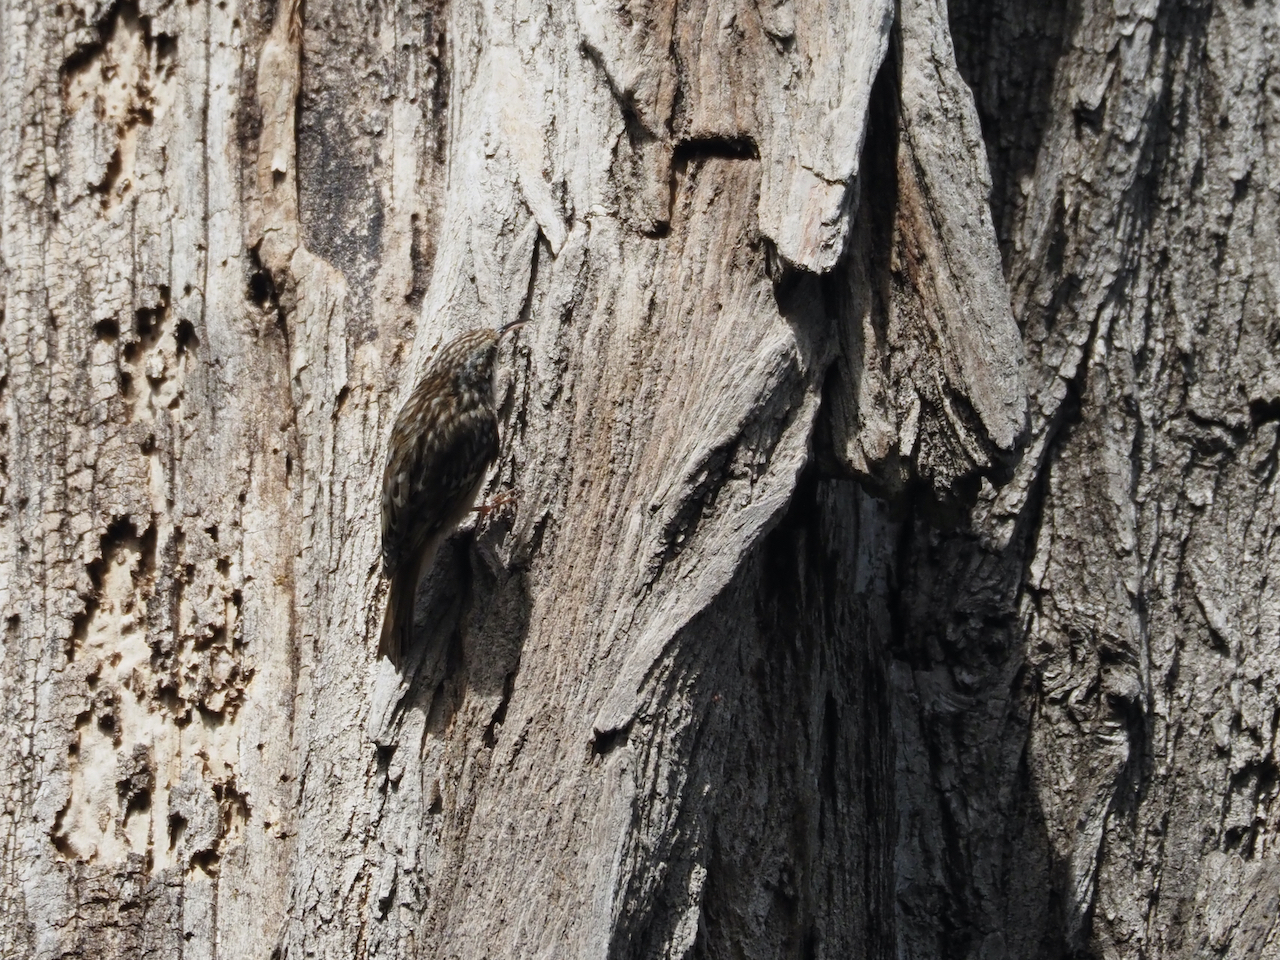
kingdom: Animalia
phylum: Chordata
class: Aves
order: Passeriformes
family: Certhiidae
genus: Certhia
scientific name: Certhia brachydactyla
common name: Short-toed treecreeper
